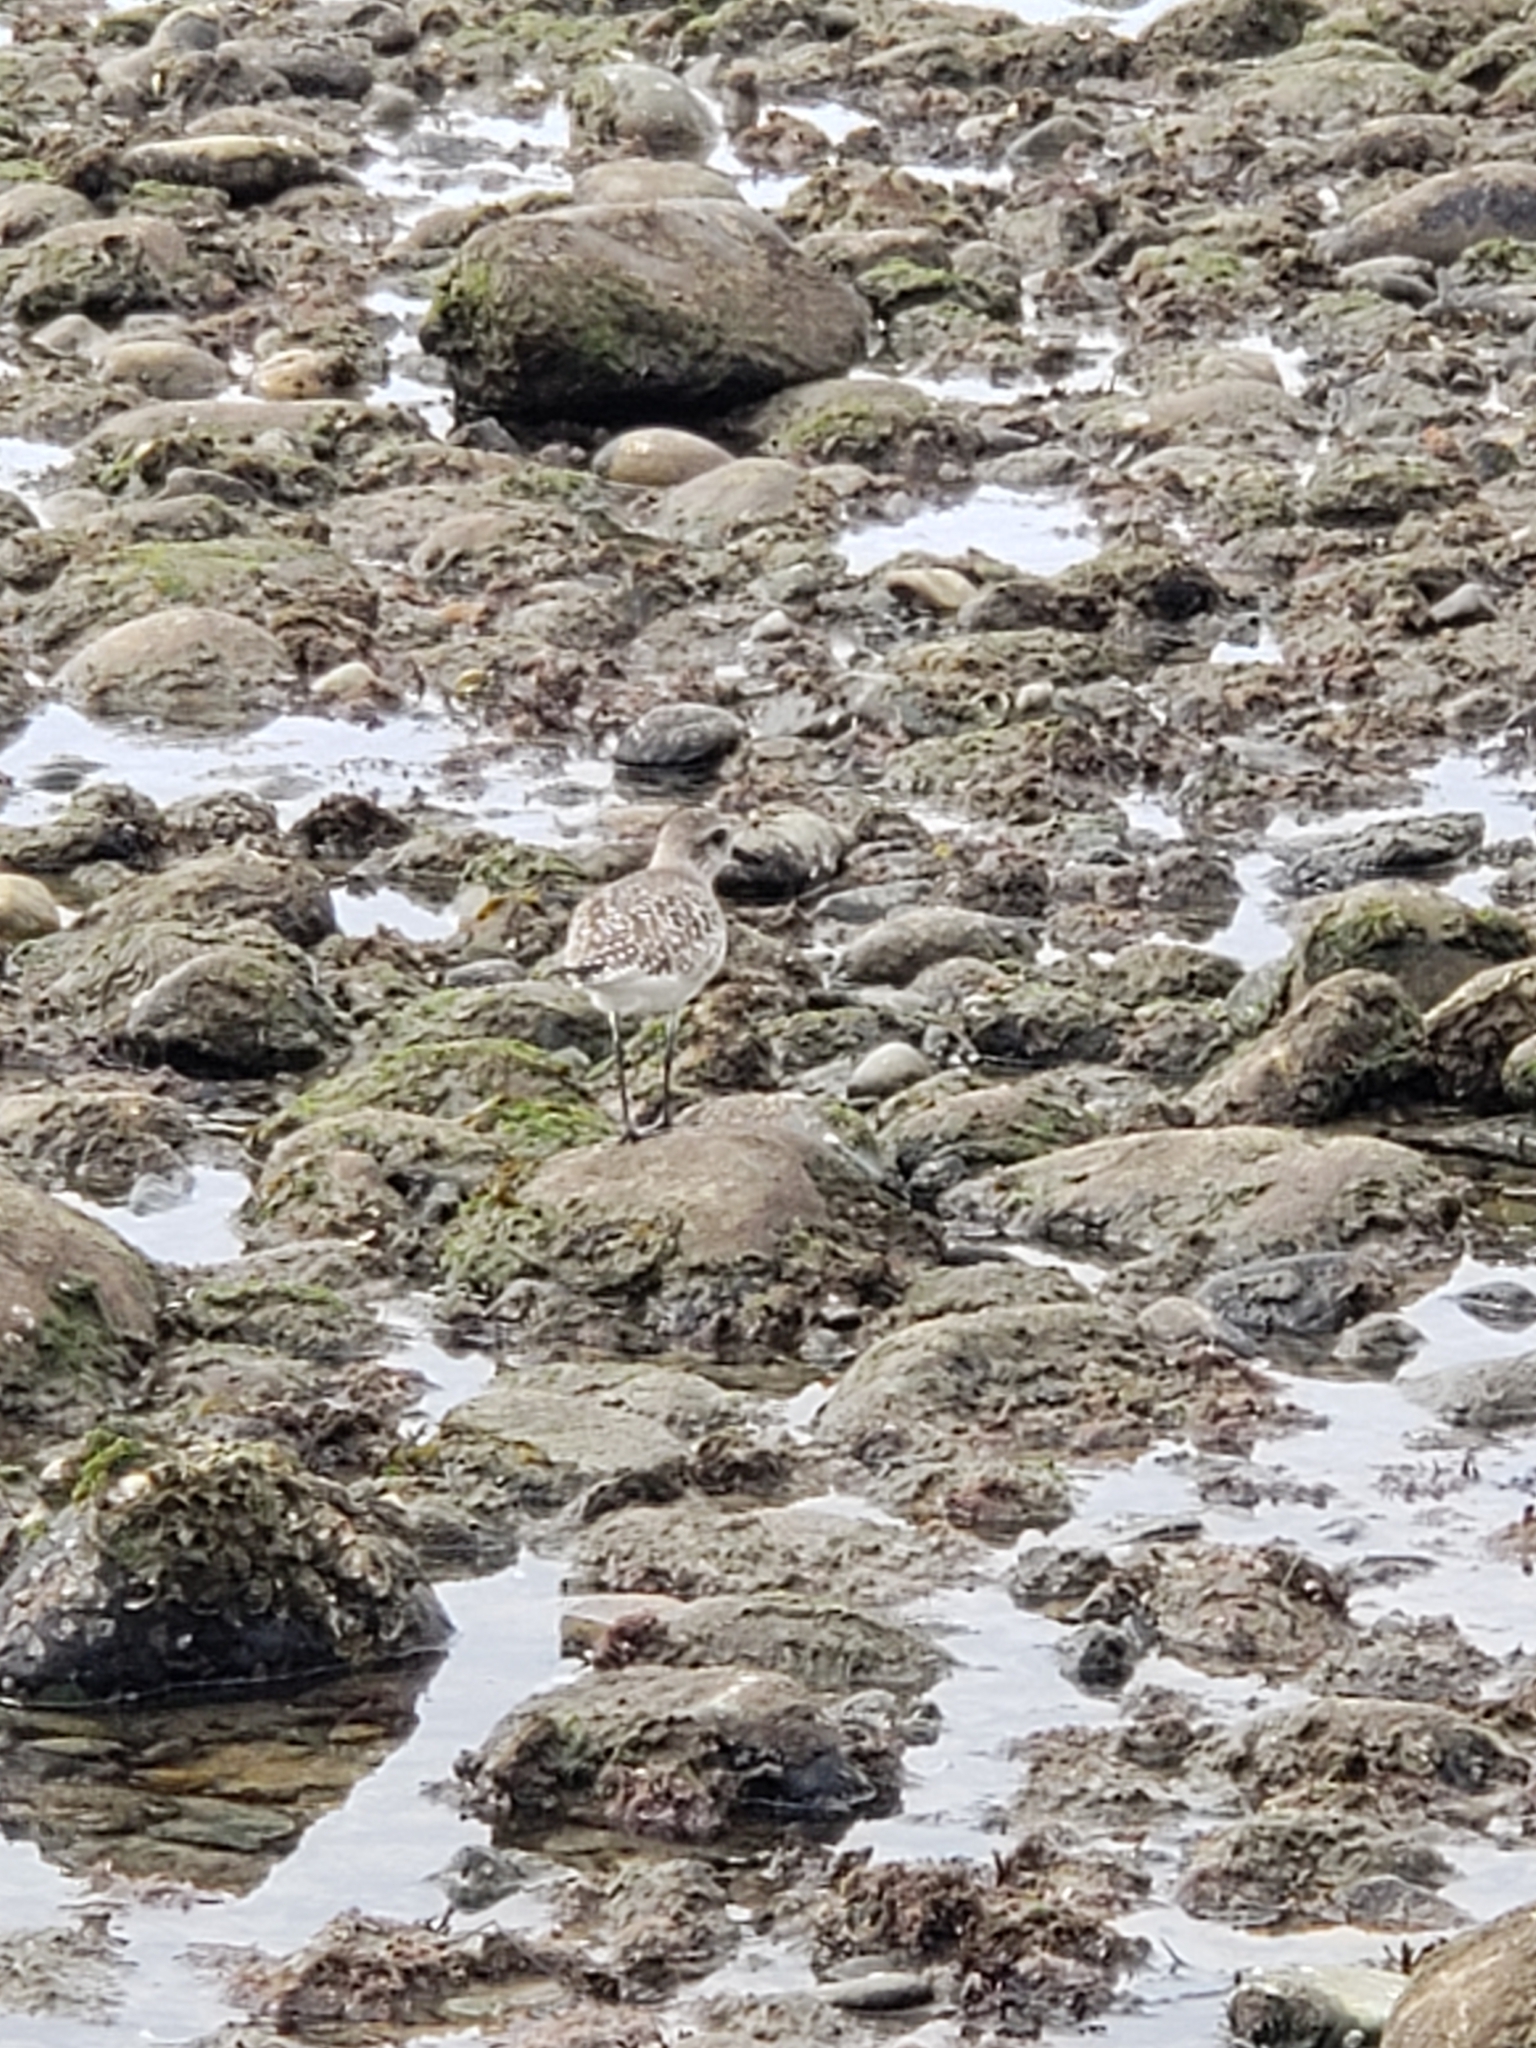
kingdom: Animalia
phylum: Chordata
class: Aves
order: Charadriiformes
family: Charadriidae
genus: Pluvialis
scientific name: Pluvialis squatarola
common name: Grey plover
